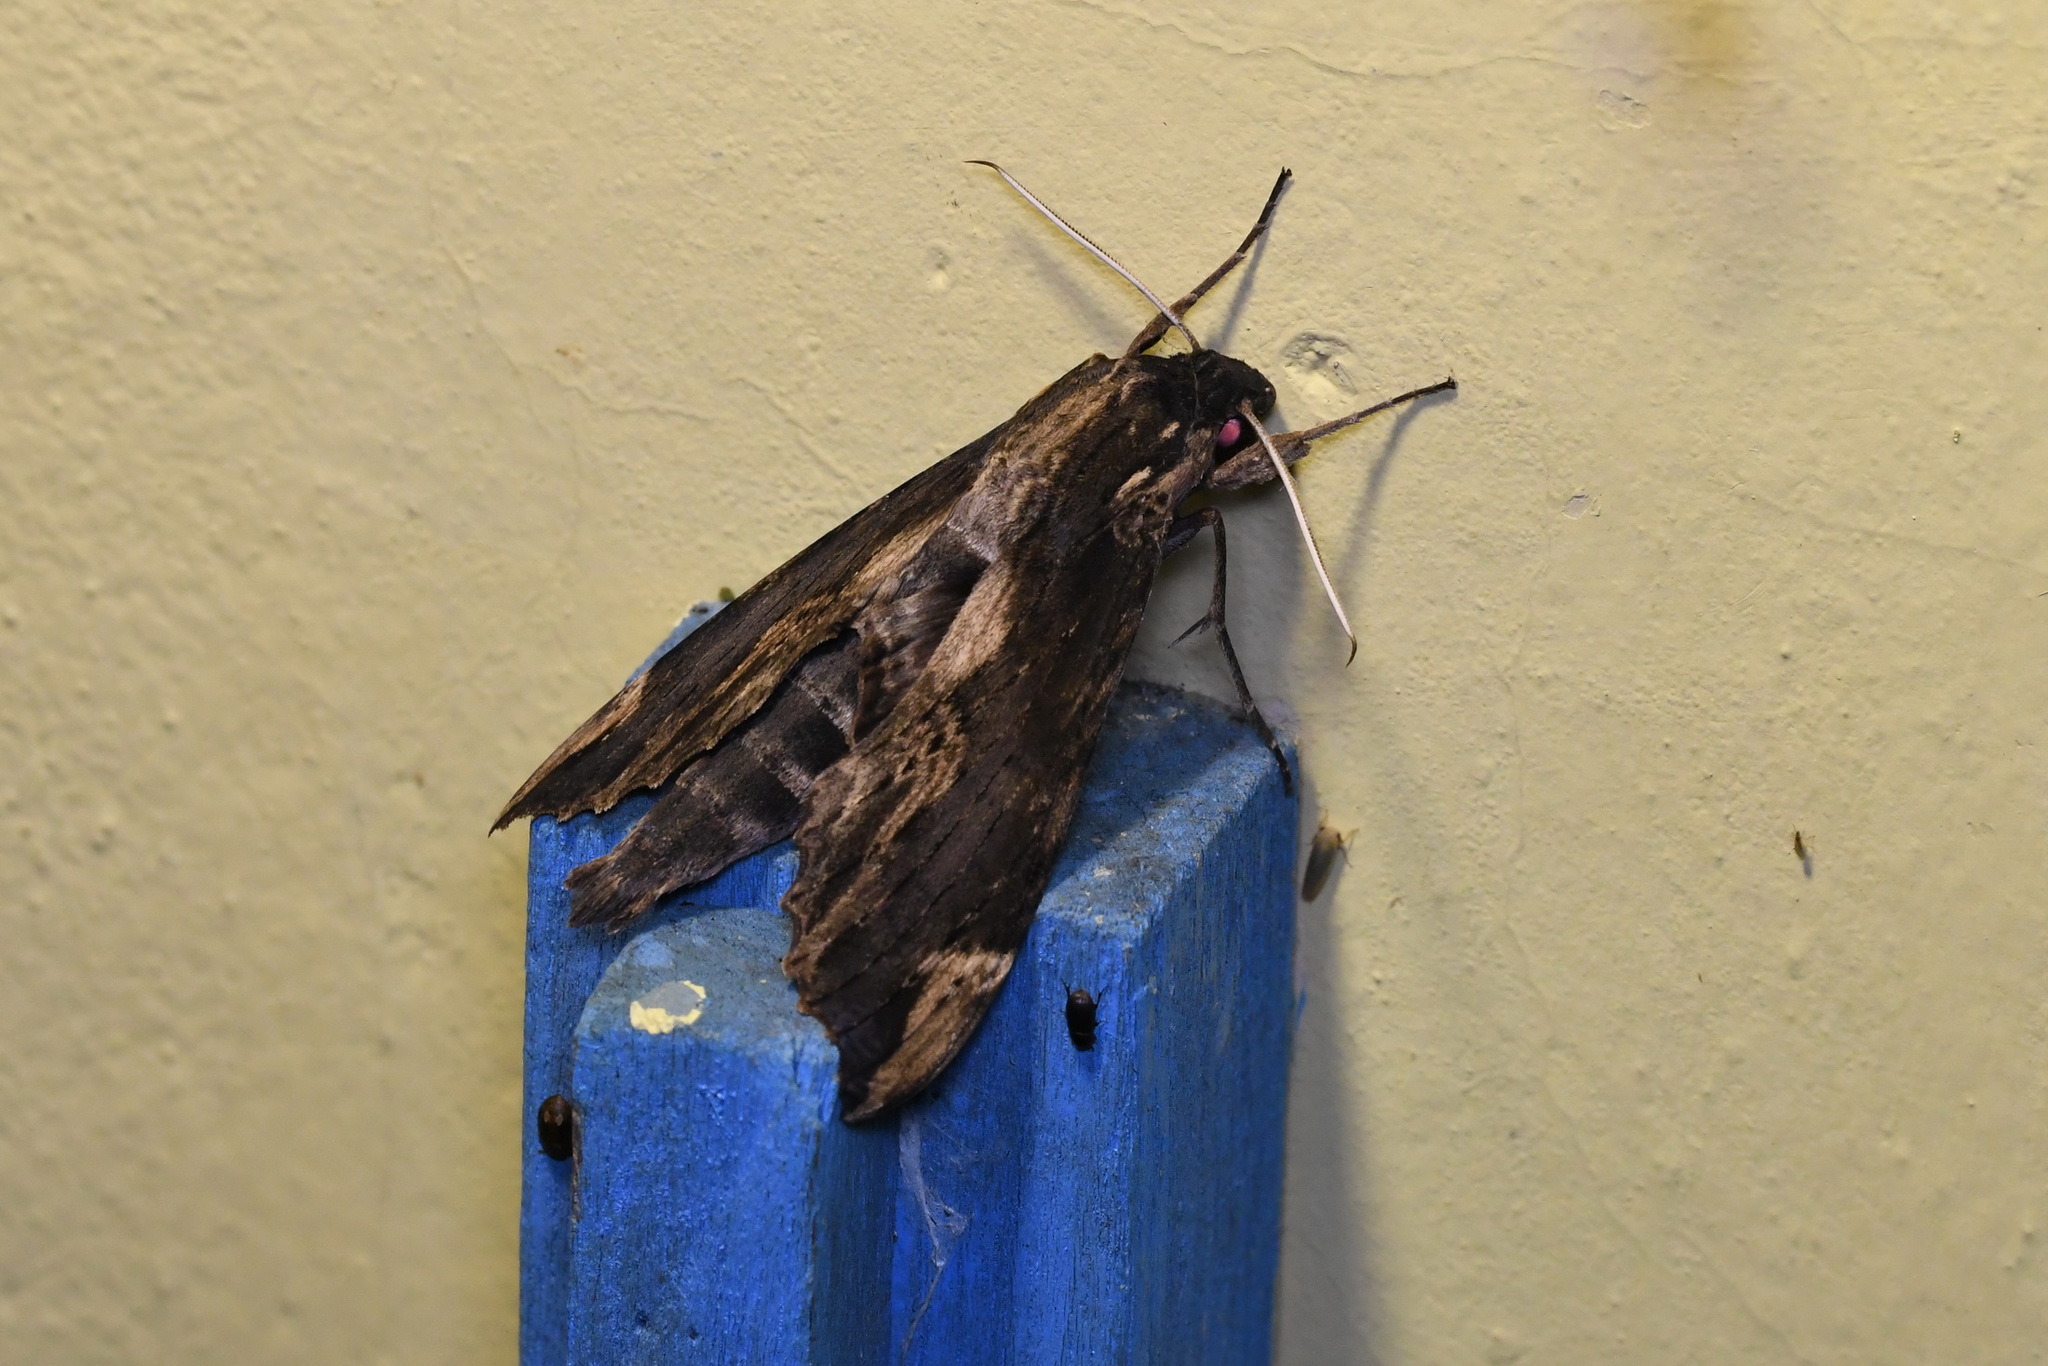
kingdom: Animalia
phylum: Arthropoda
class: Insecta
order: Lepidoptera
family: Sphingidae
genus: Erinnyis
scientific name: Erinnyis lassauxi
